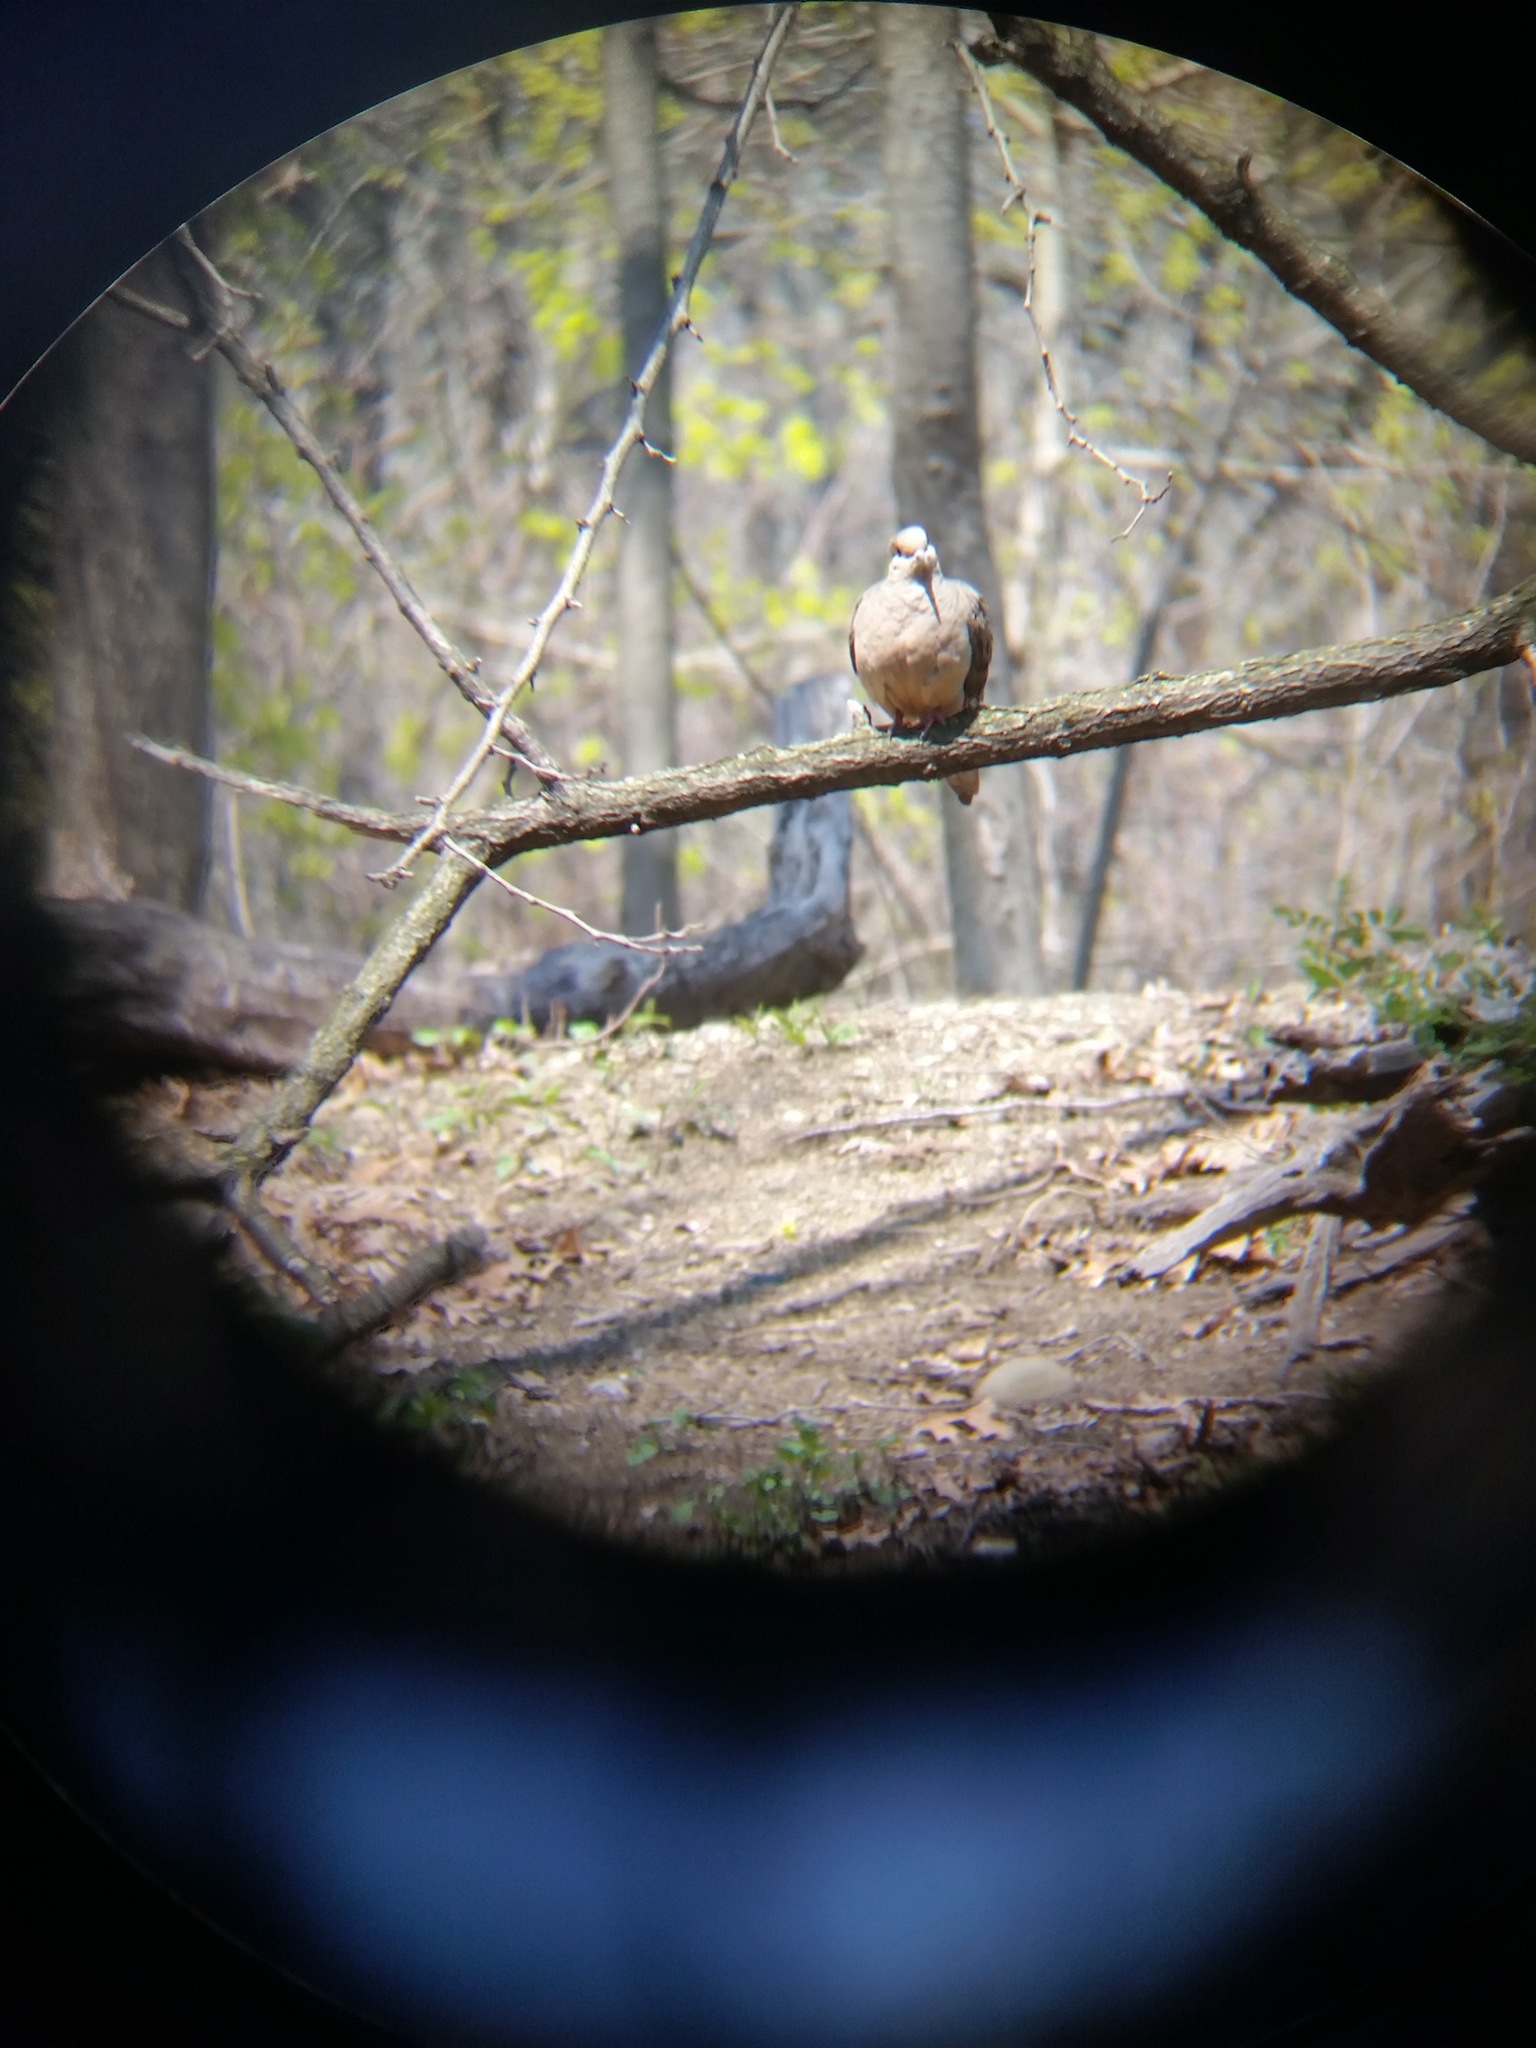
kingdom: Animalia
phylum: Chordata
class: Aves
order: Columbiformes
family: Columbidae
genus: Zenaida
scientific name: Zenaida macroura
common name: Mourning dove
